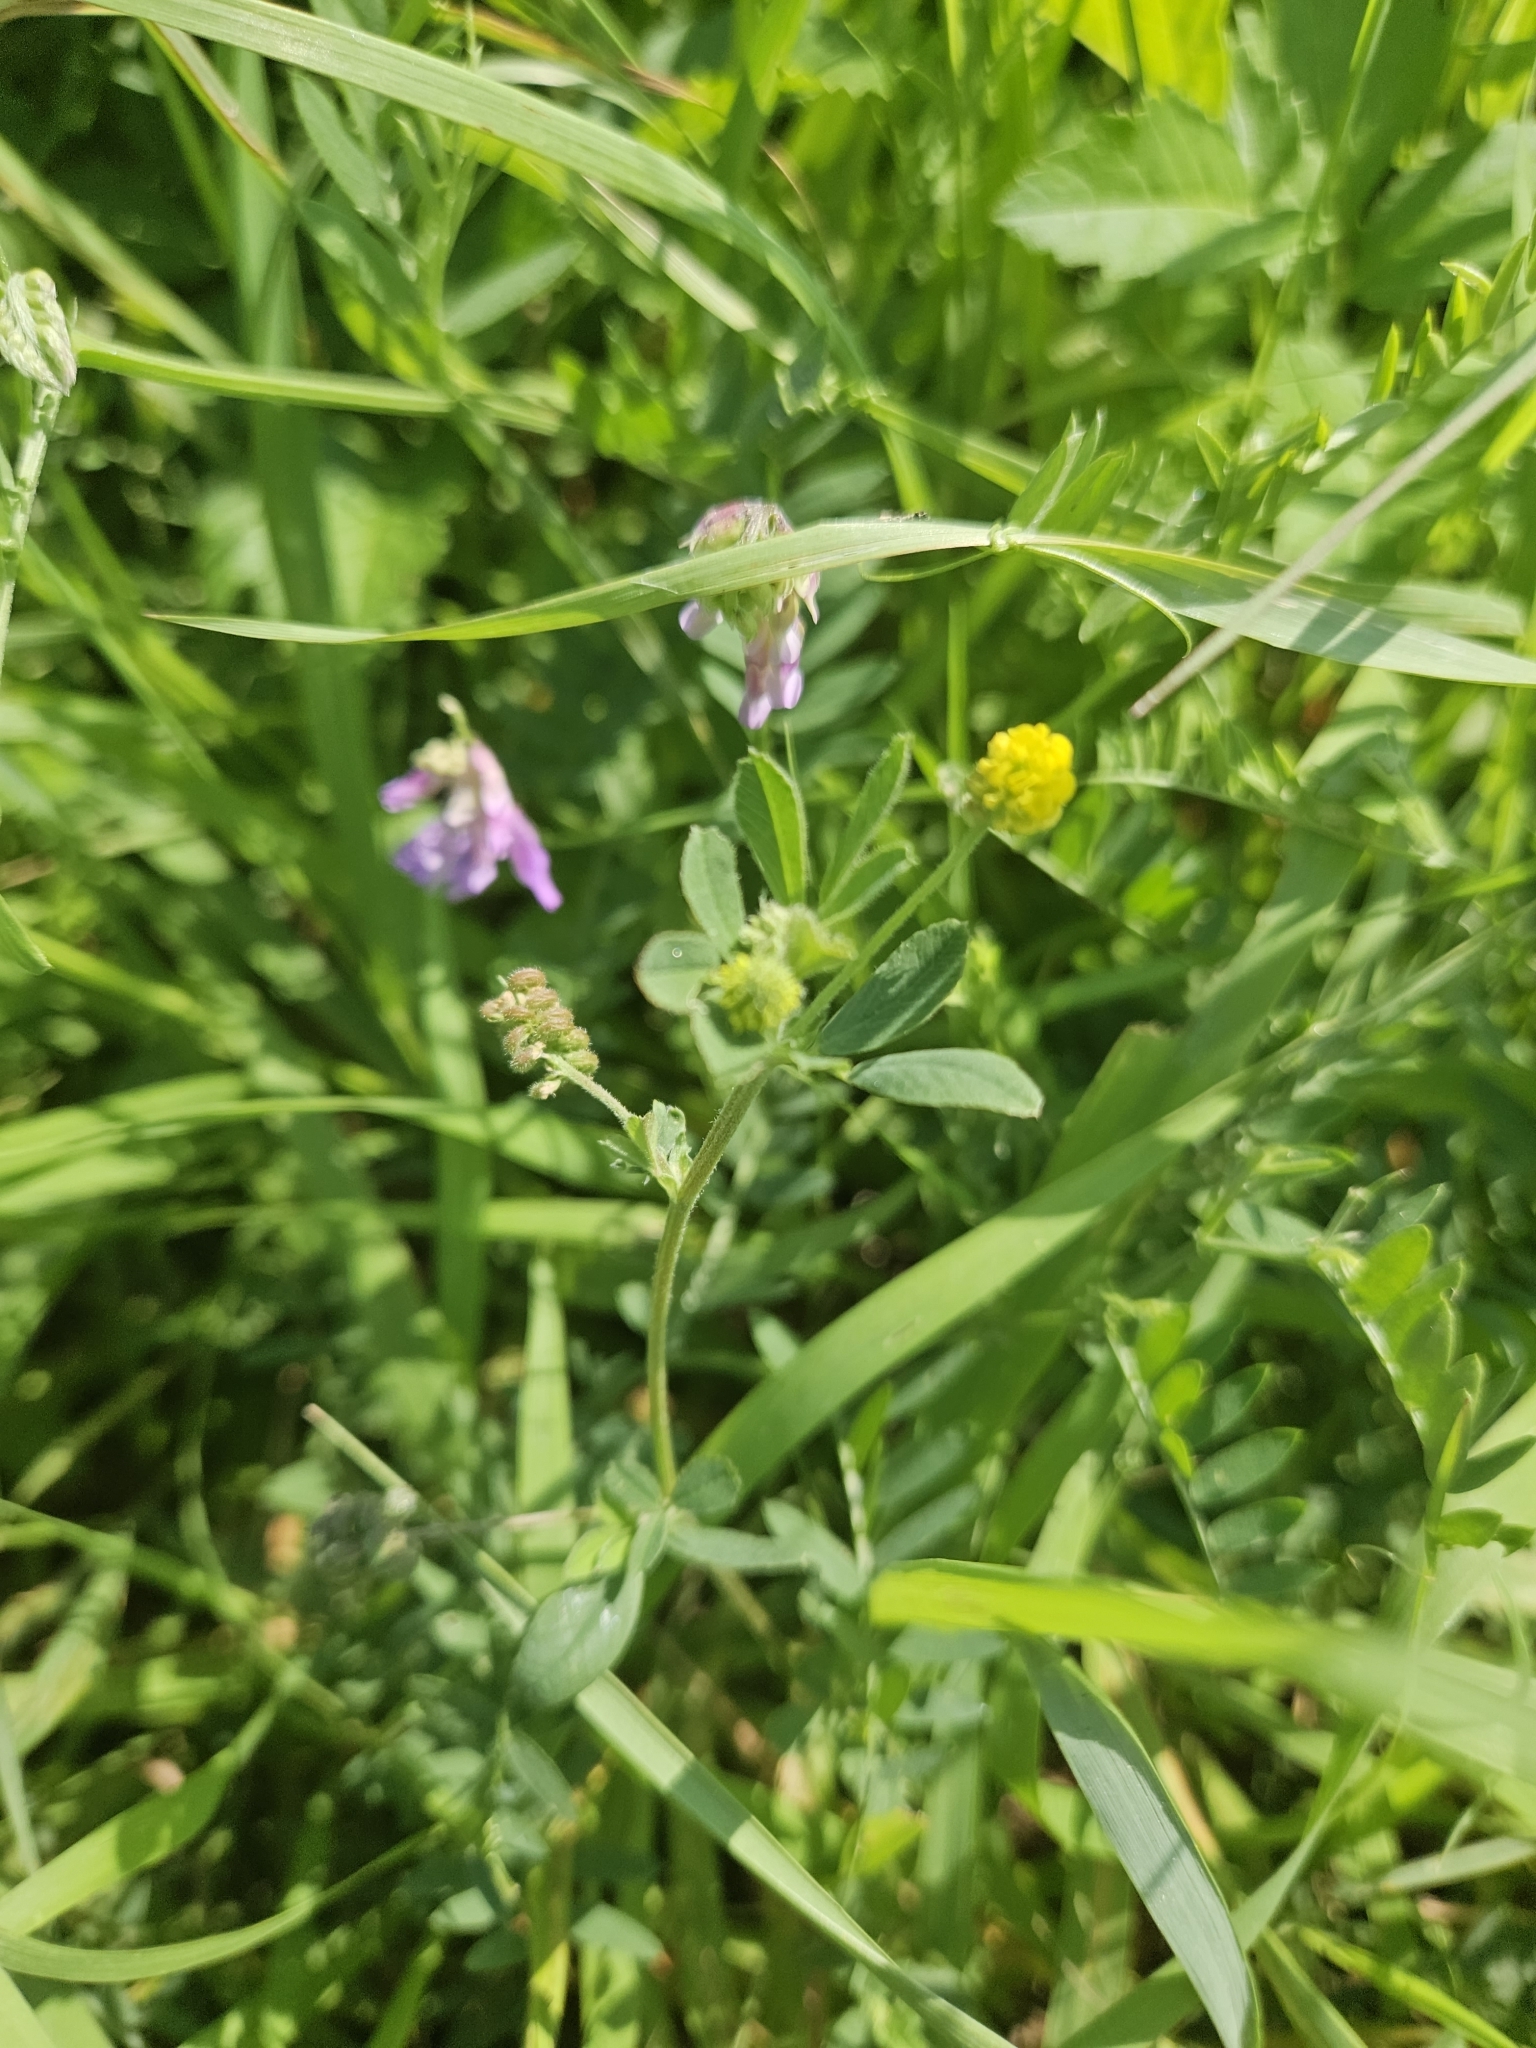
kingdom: Plantae
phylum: Tracheophyta
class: Magnoliopsida
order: Fabales
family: Fabaceae
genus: Medicago
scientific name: Medicago lupulina
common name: Black medick
